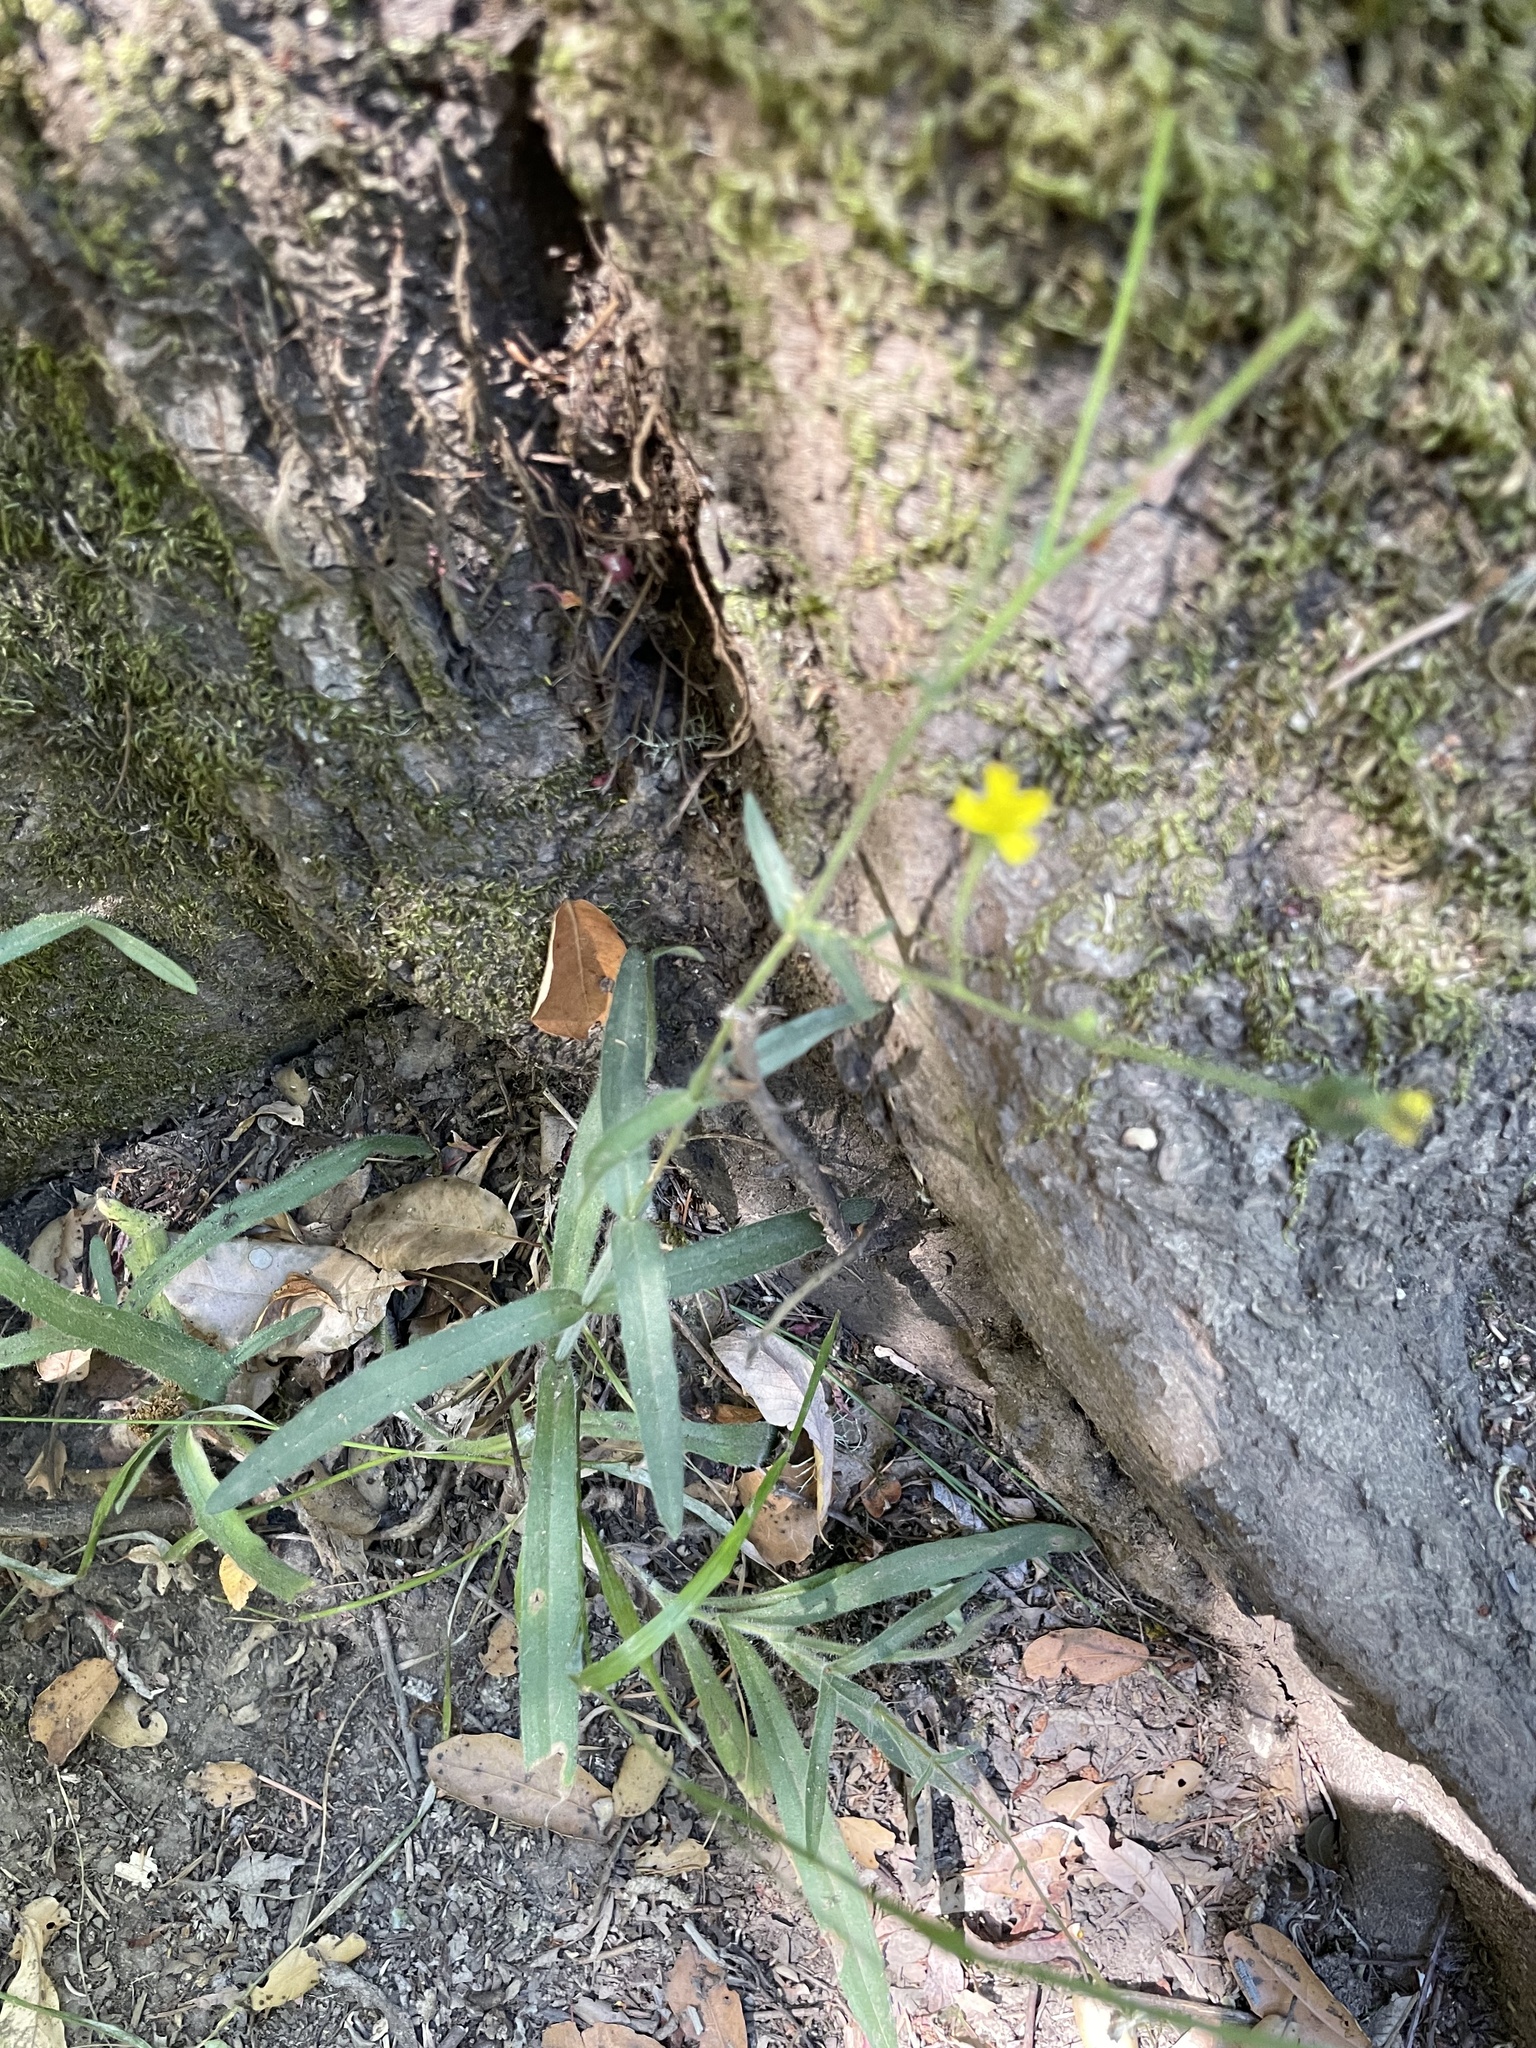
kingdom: Plantae
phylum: Tracheophyta
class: Magnoliopsida
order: Asterales
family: Asteraceae
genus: Anisocarpus
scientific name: Anisocarpus madioides
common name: Woodland madia
